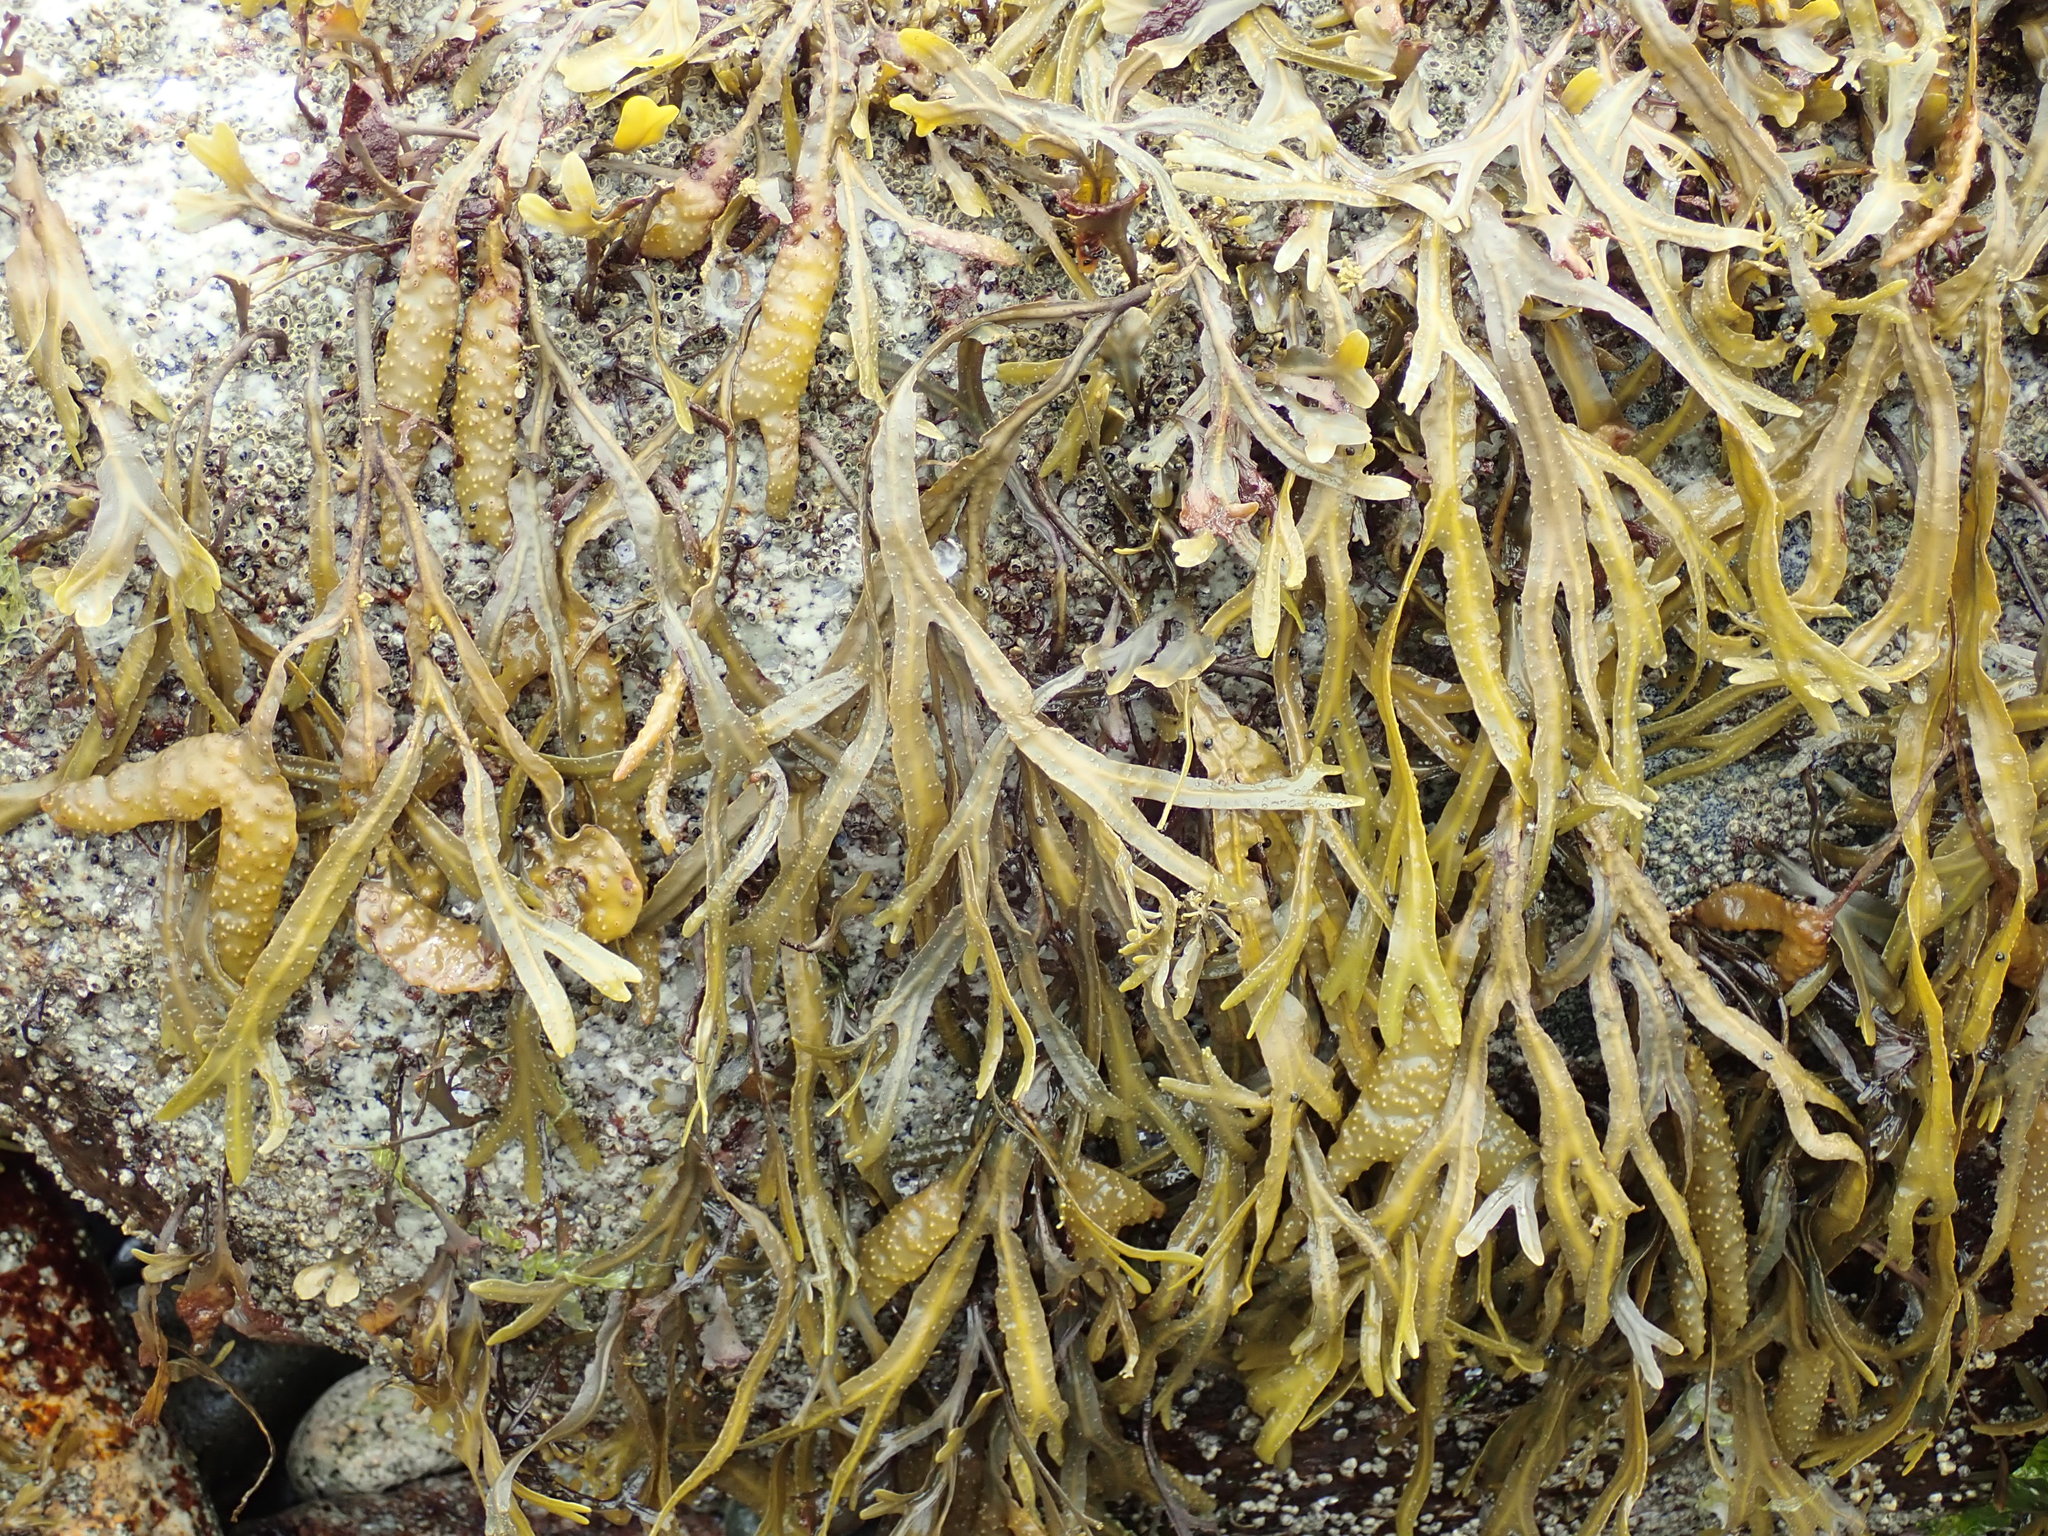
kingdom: Chromista
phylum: Ochrophyta
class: Phaeophyceae
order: Fucales
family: Fucaceae
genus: Fucus
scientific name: Fucus distichus
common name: Rockweed
